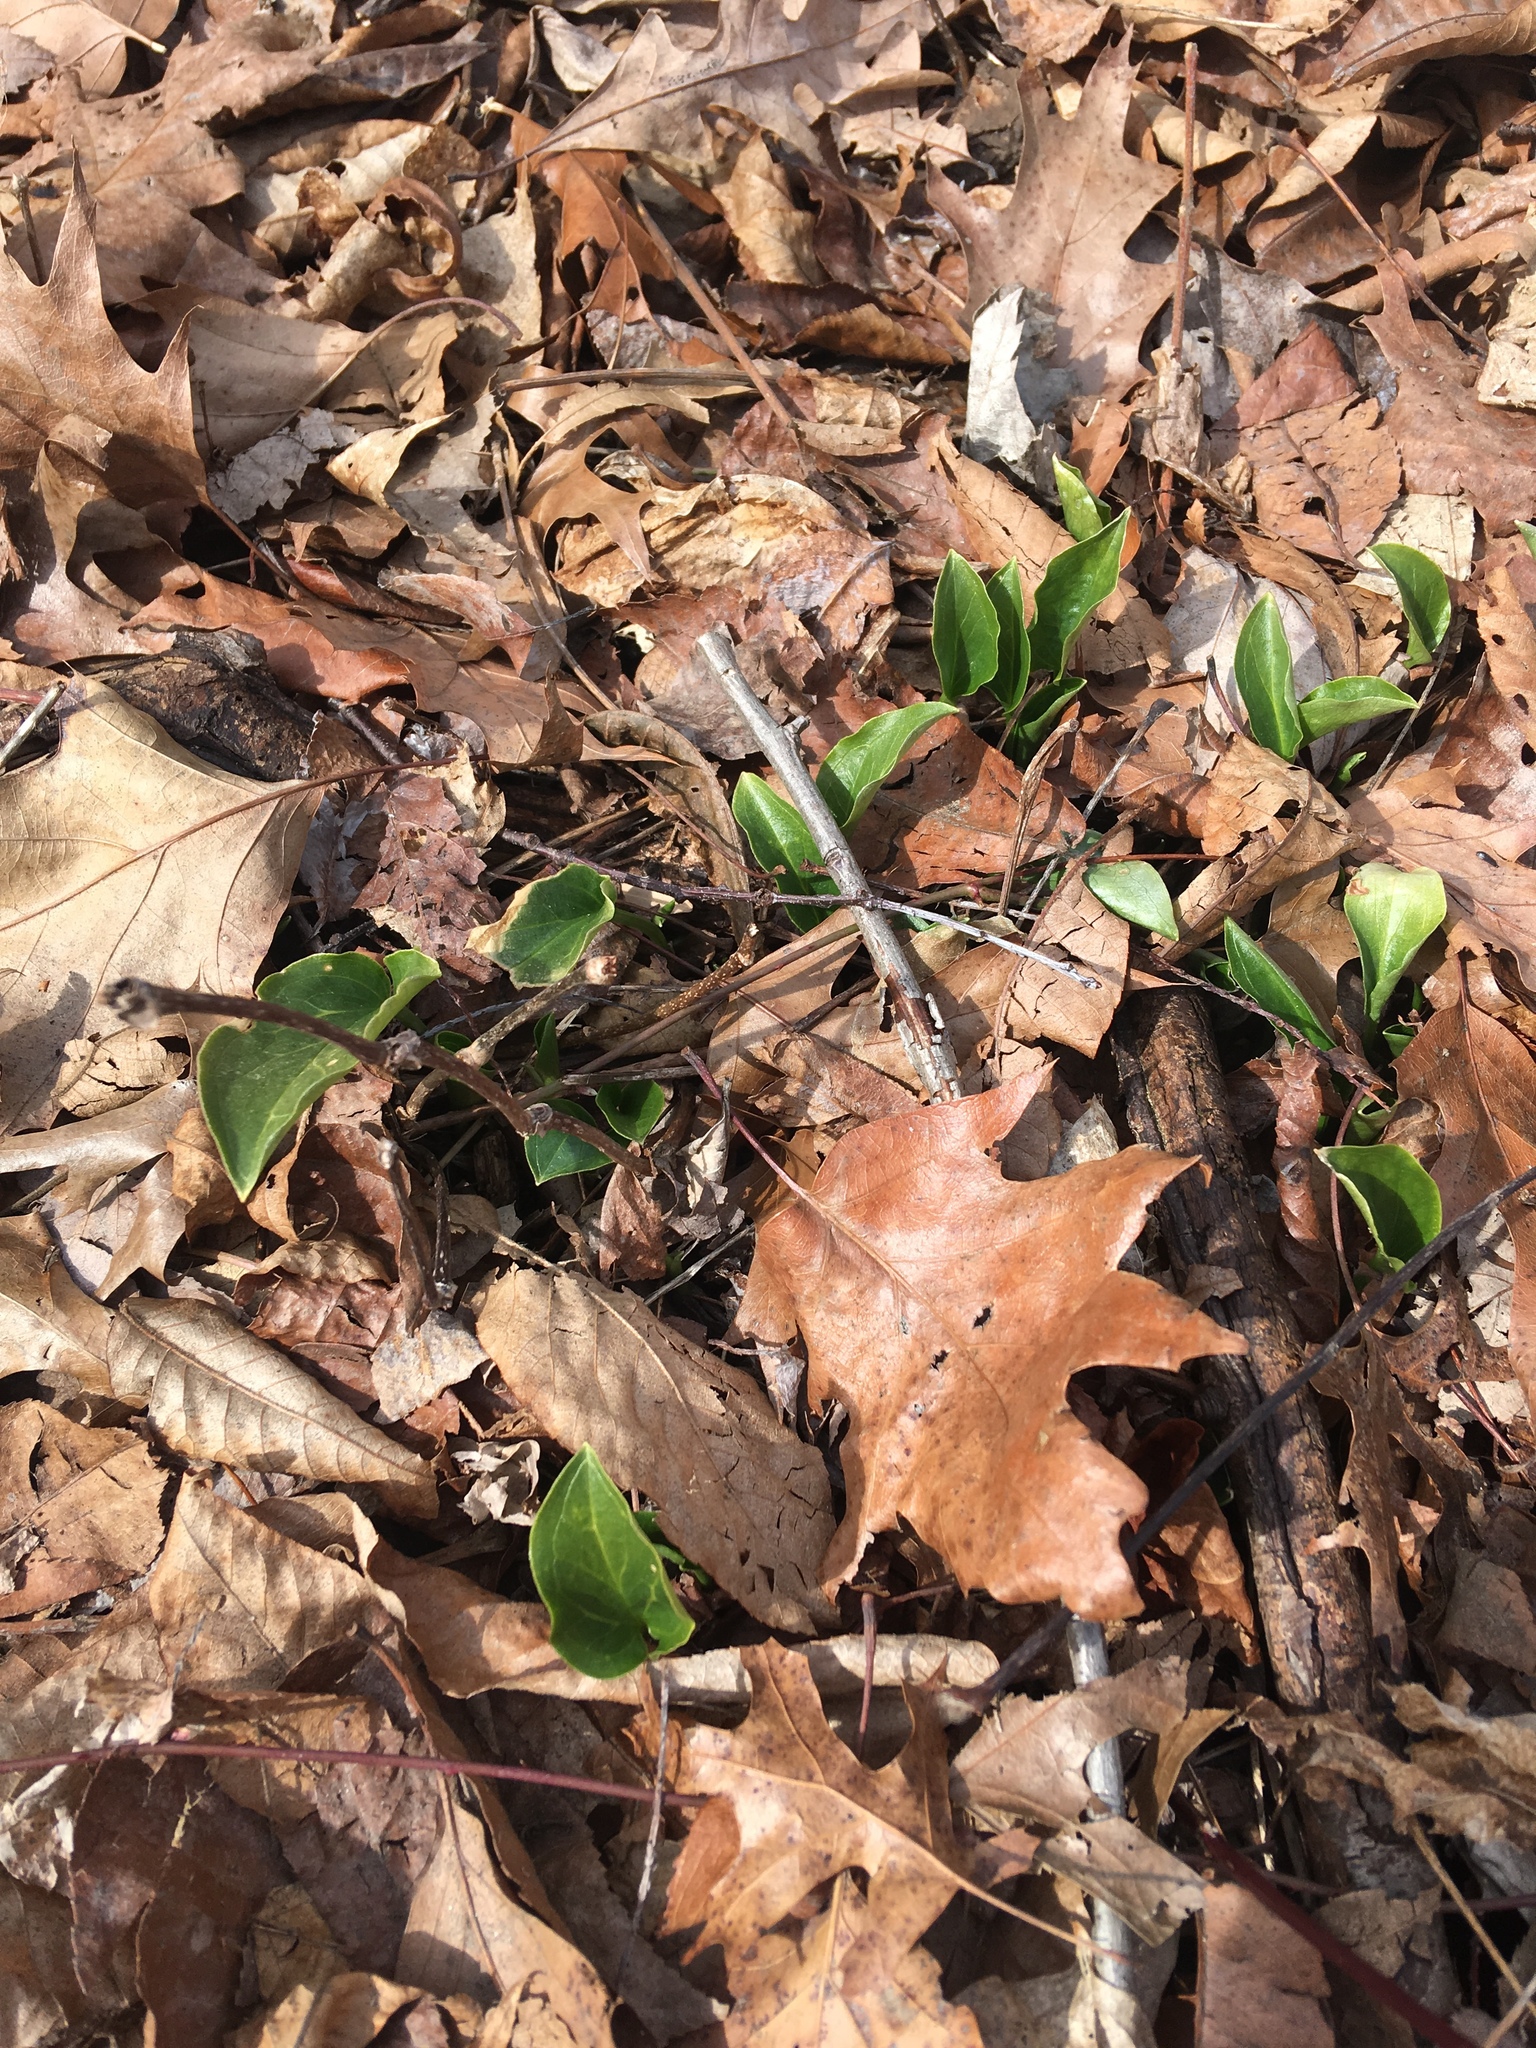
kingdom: Plantae
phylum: Tracheophyta
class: Liliopsida
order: Alismatales
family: Araceae
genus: Arum
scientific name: Arum italicum
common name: Italian lords-and-ladies
